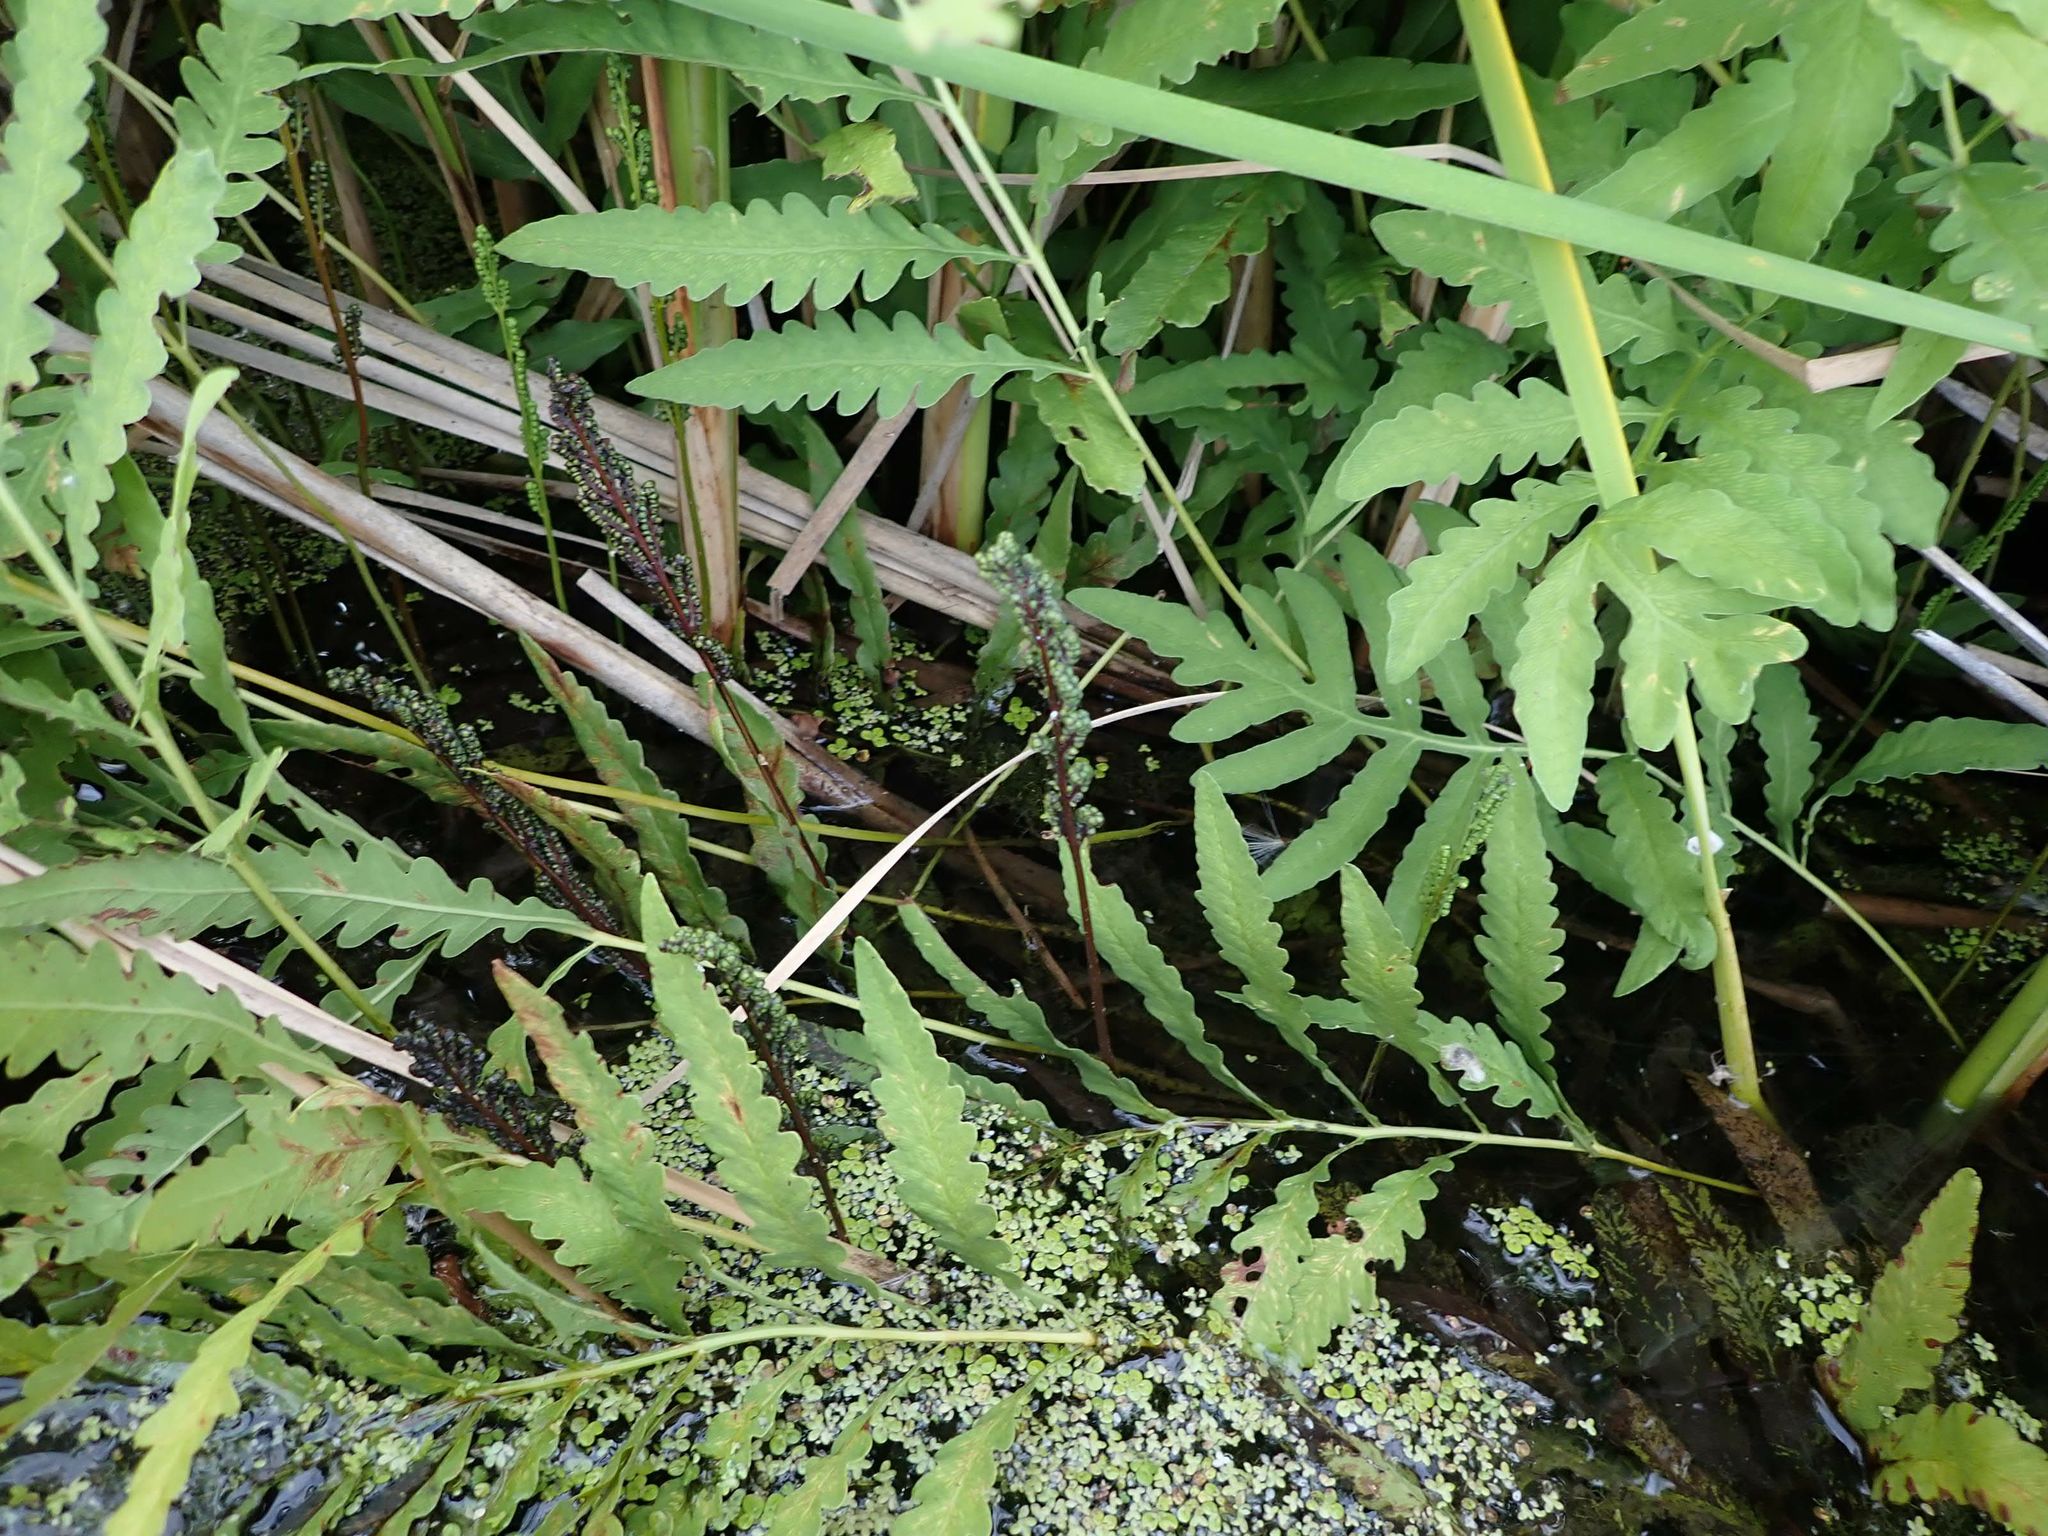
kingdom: Plantae
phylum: Tracheophyta
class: Polypodiopsida
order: Polypodiales
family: Onocleaceae
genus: Onoclea
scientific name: Onoclea sensibilis
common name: Sensitive fern
